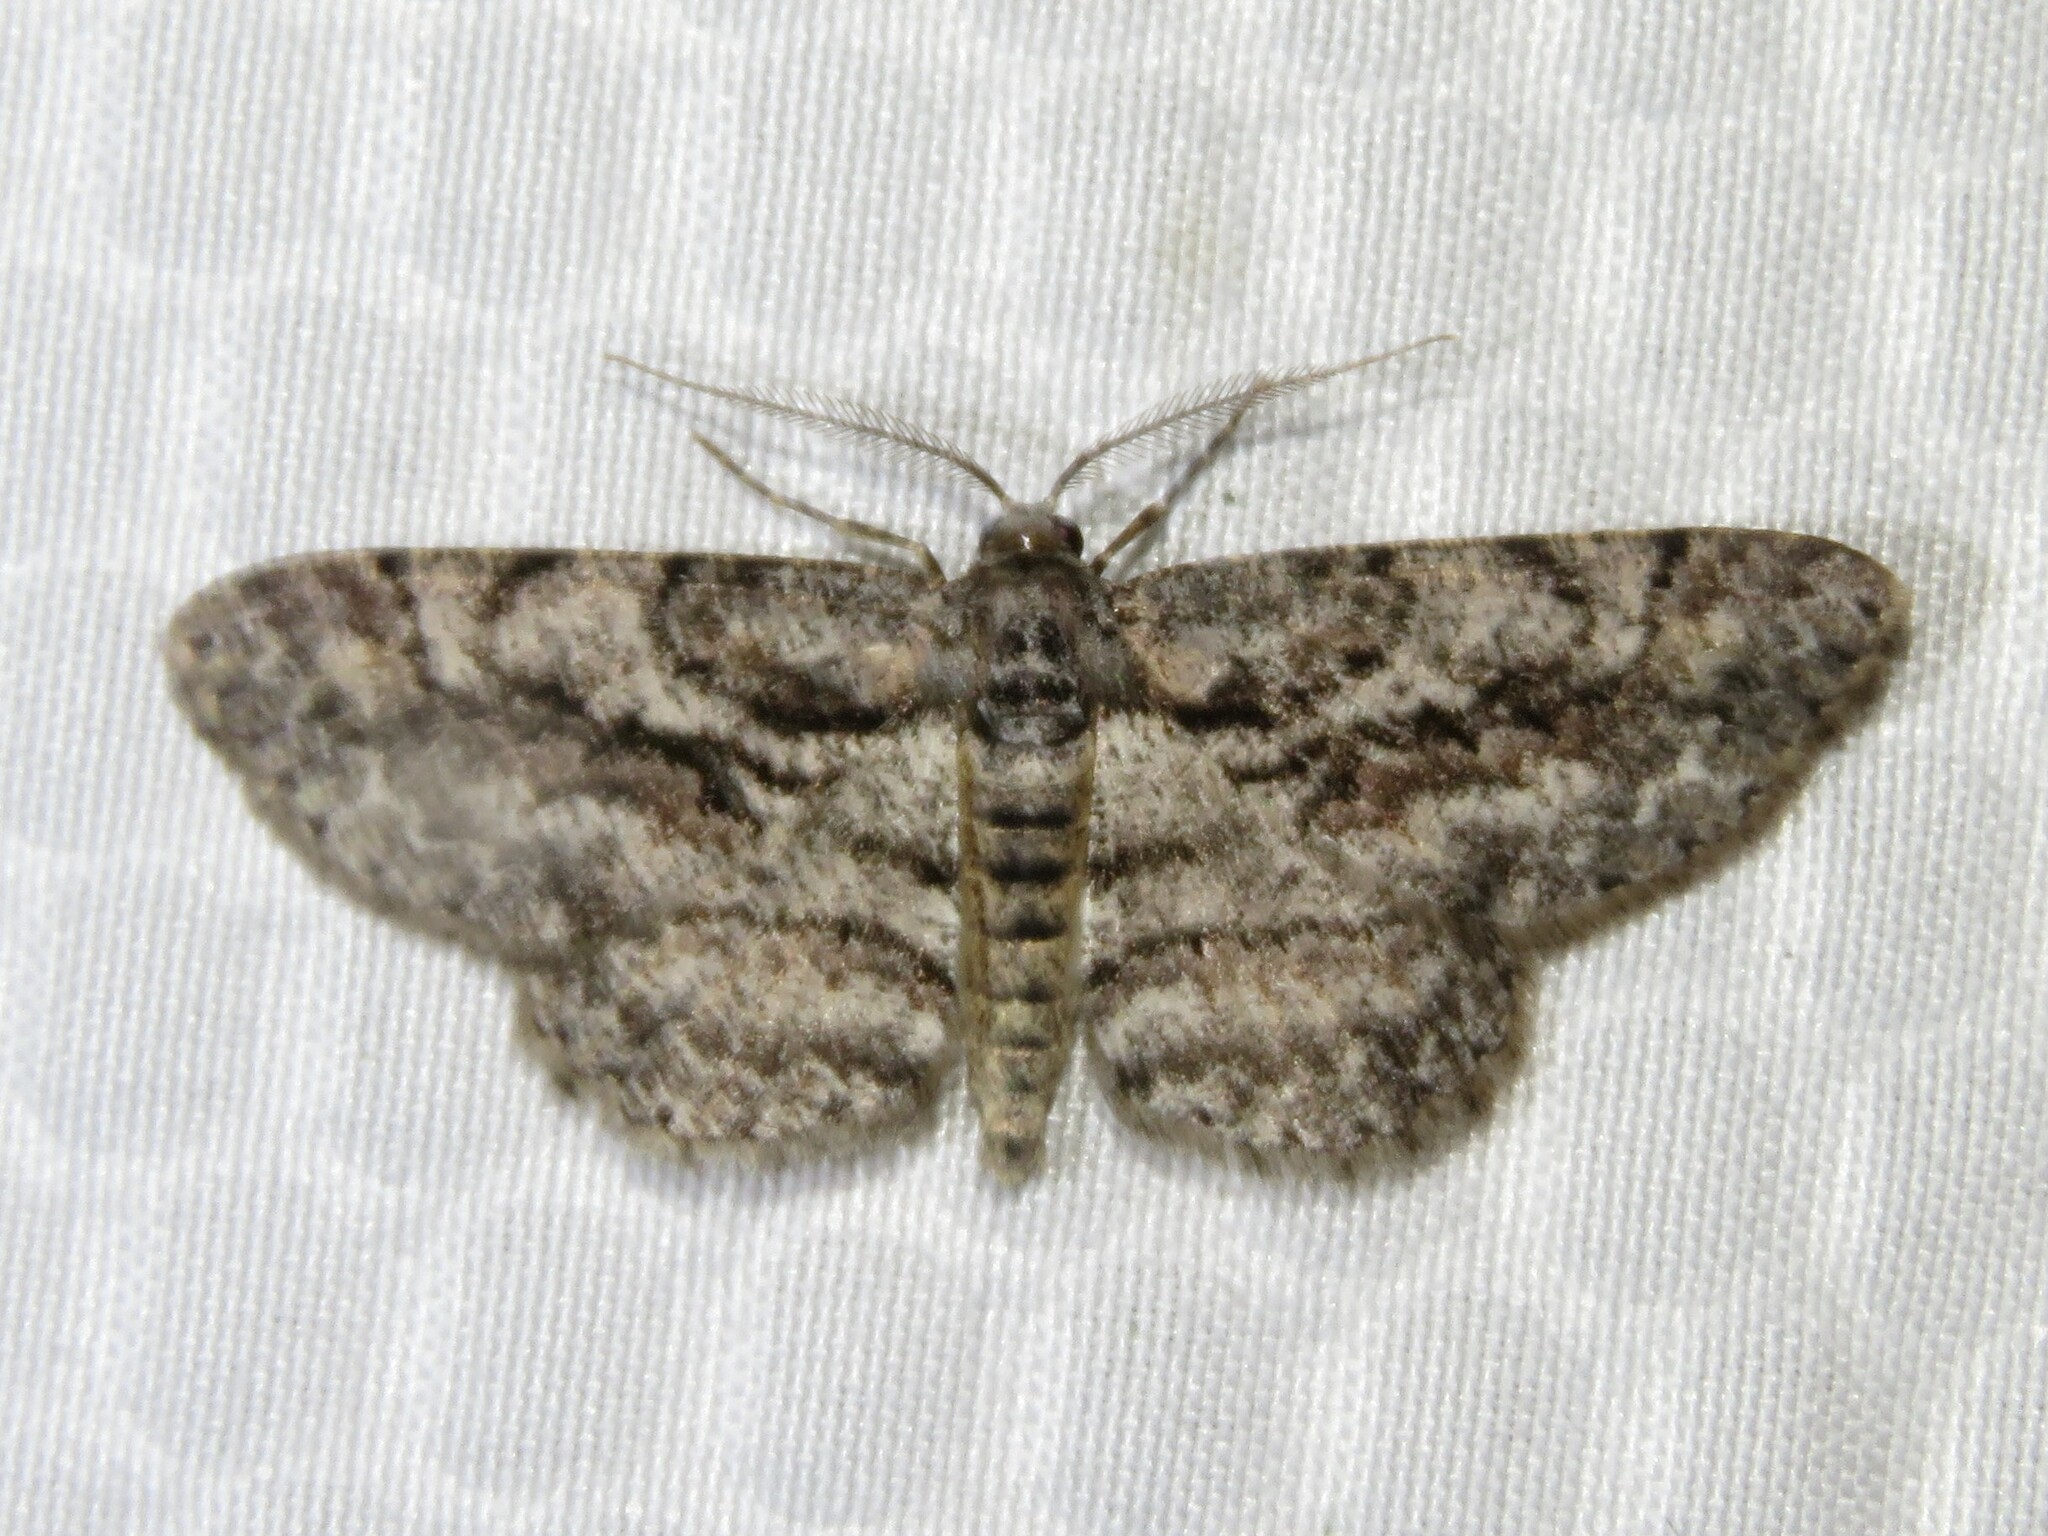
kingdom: Animalia
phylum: Arthropoda
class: Insecta
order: Lepidoptera
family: Geometridae
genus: Anavitrinella
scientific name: Anavitrinella pampinaria
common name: Common gray
